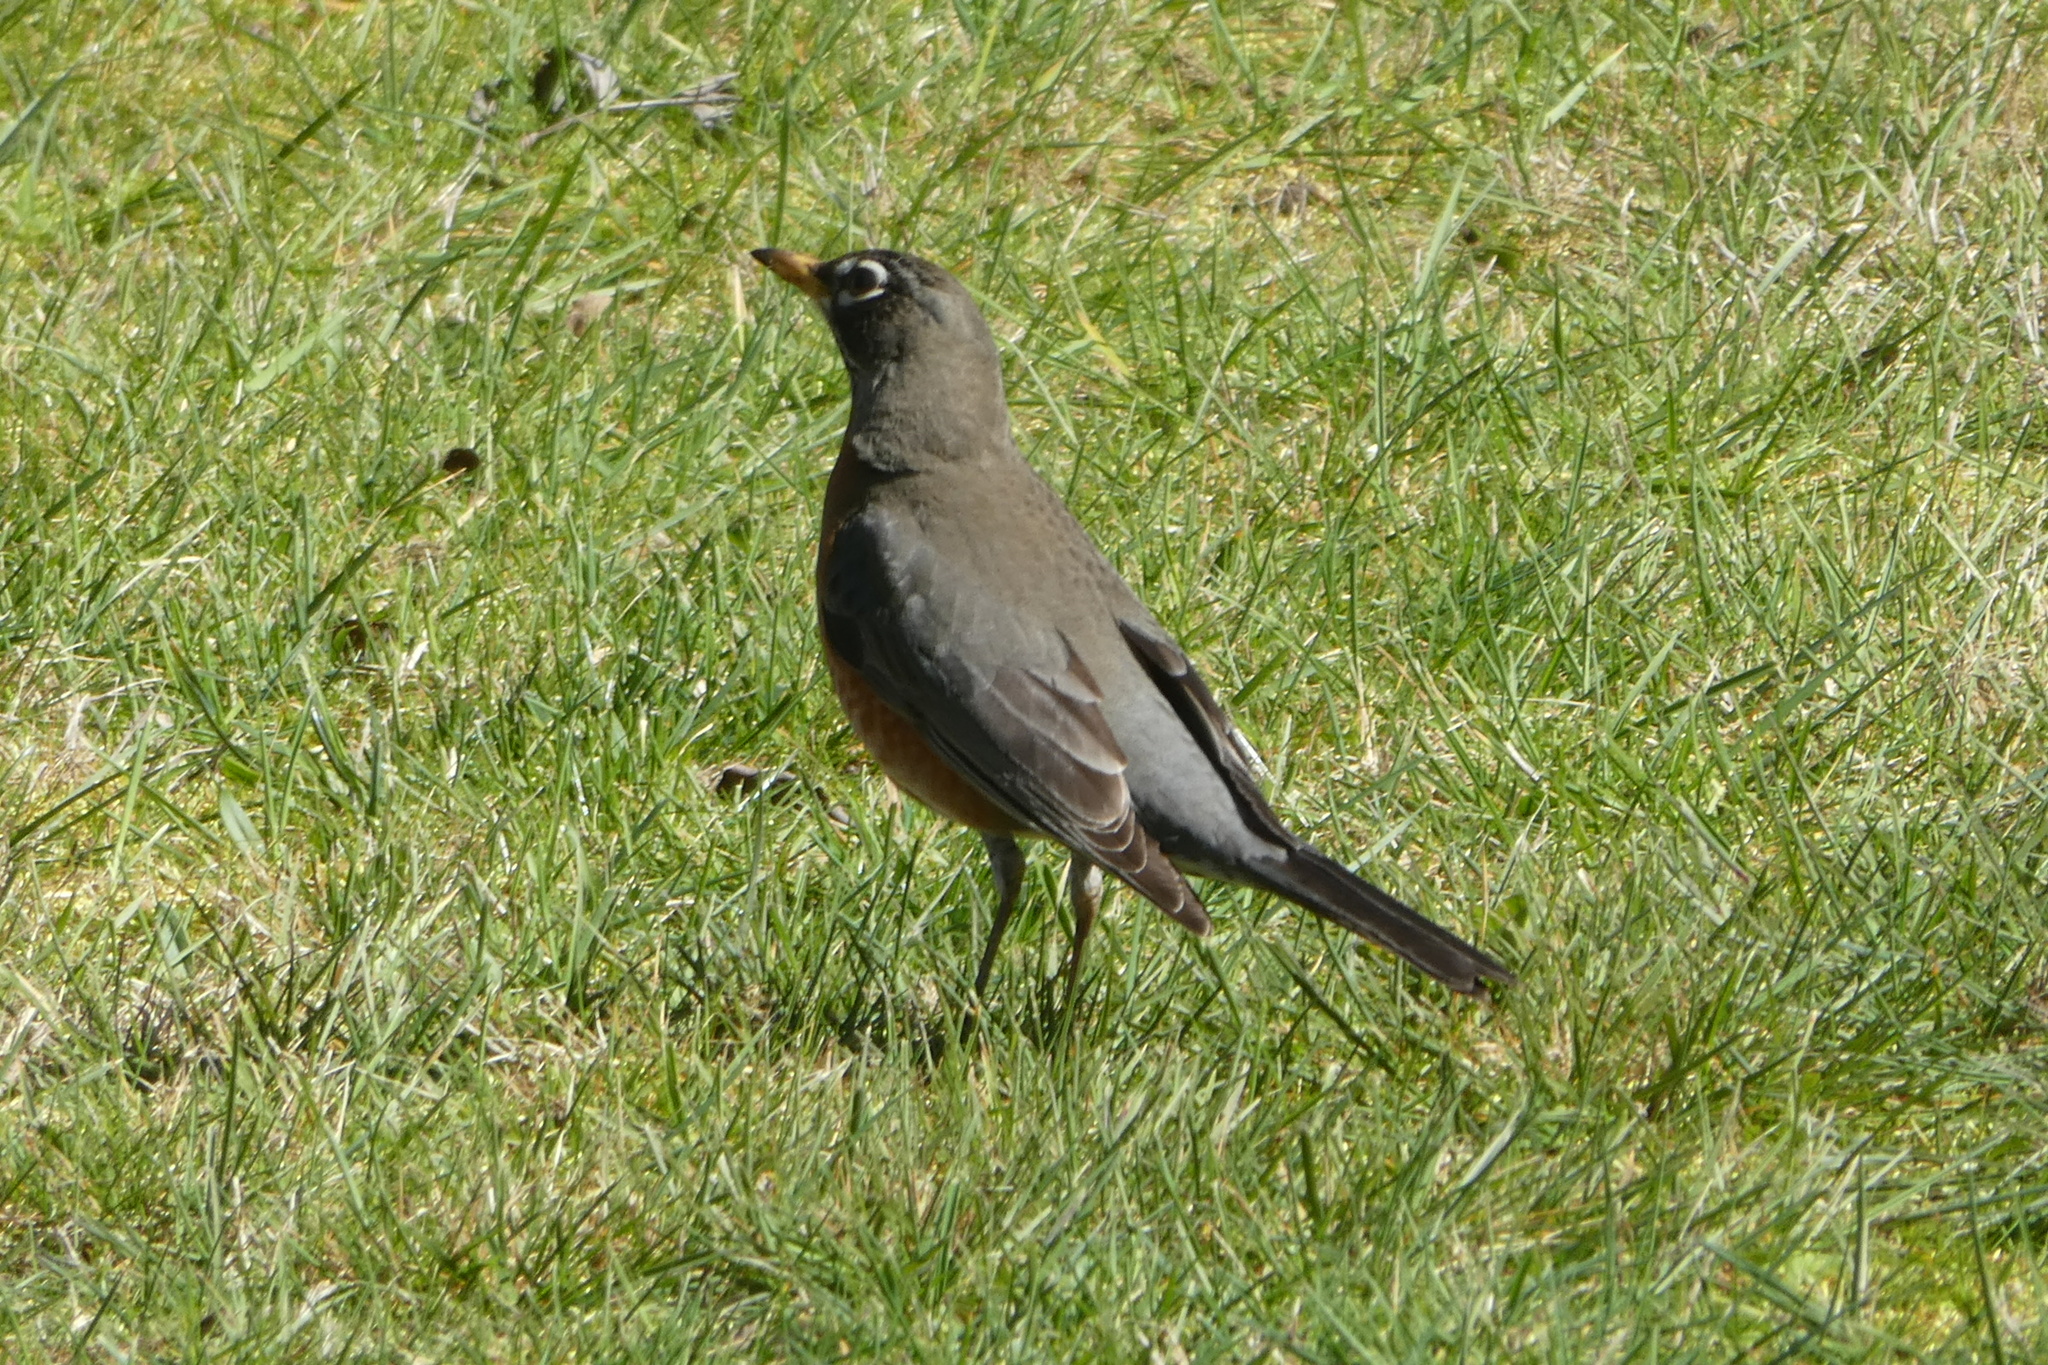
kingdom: Animalia
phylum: Chordata
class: Aves
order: Passeriformes
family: Turdidae
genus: Turdus
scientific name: Turdus migratorius
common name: American robin
